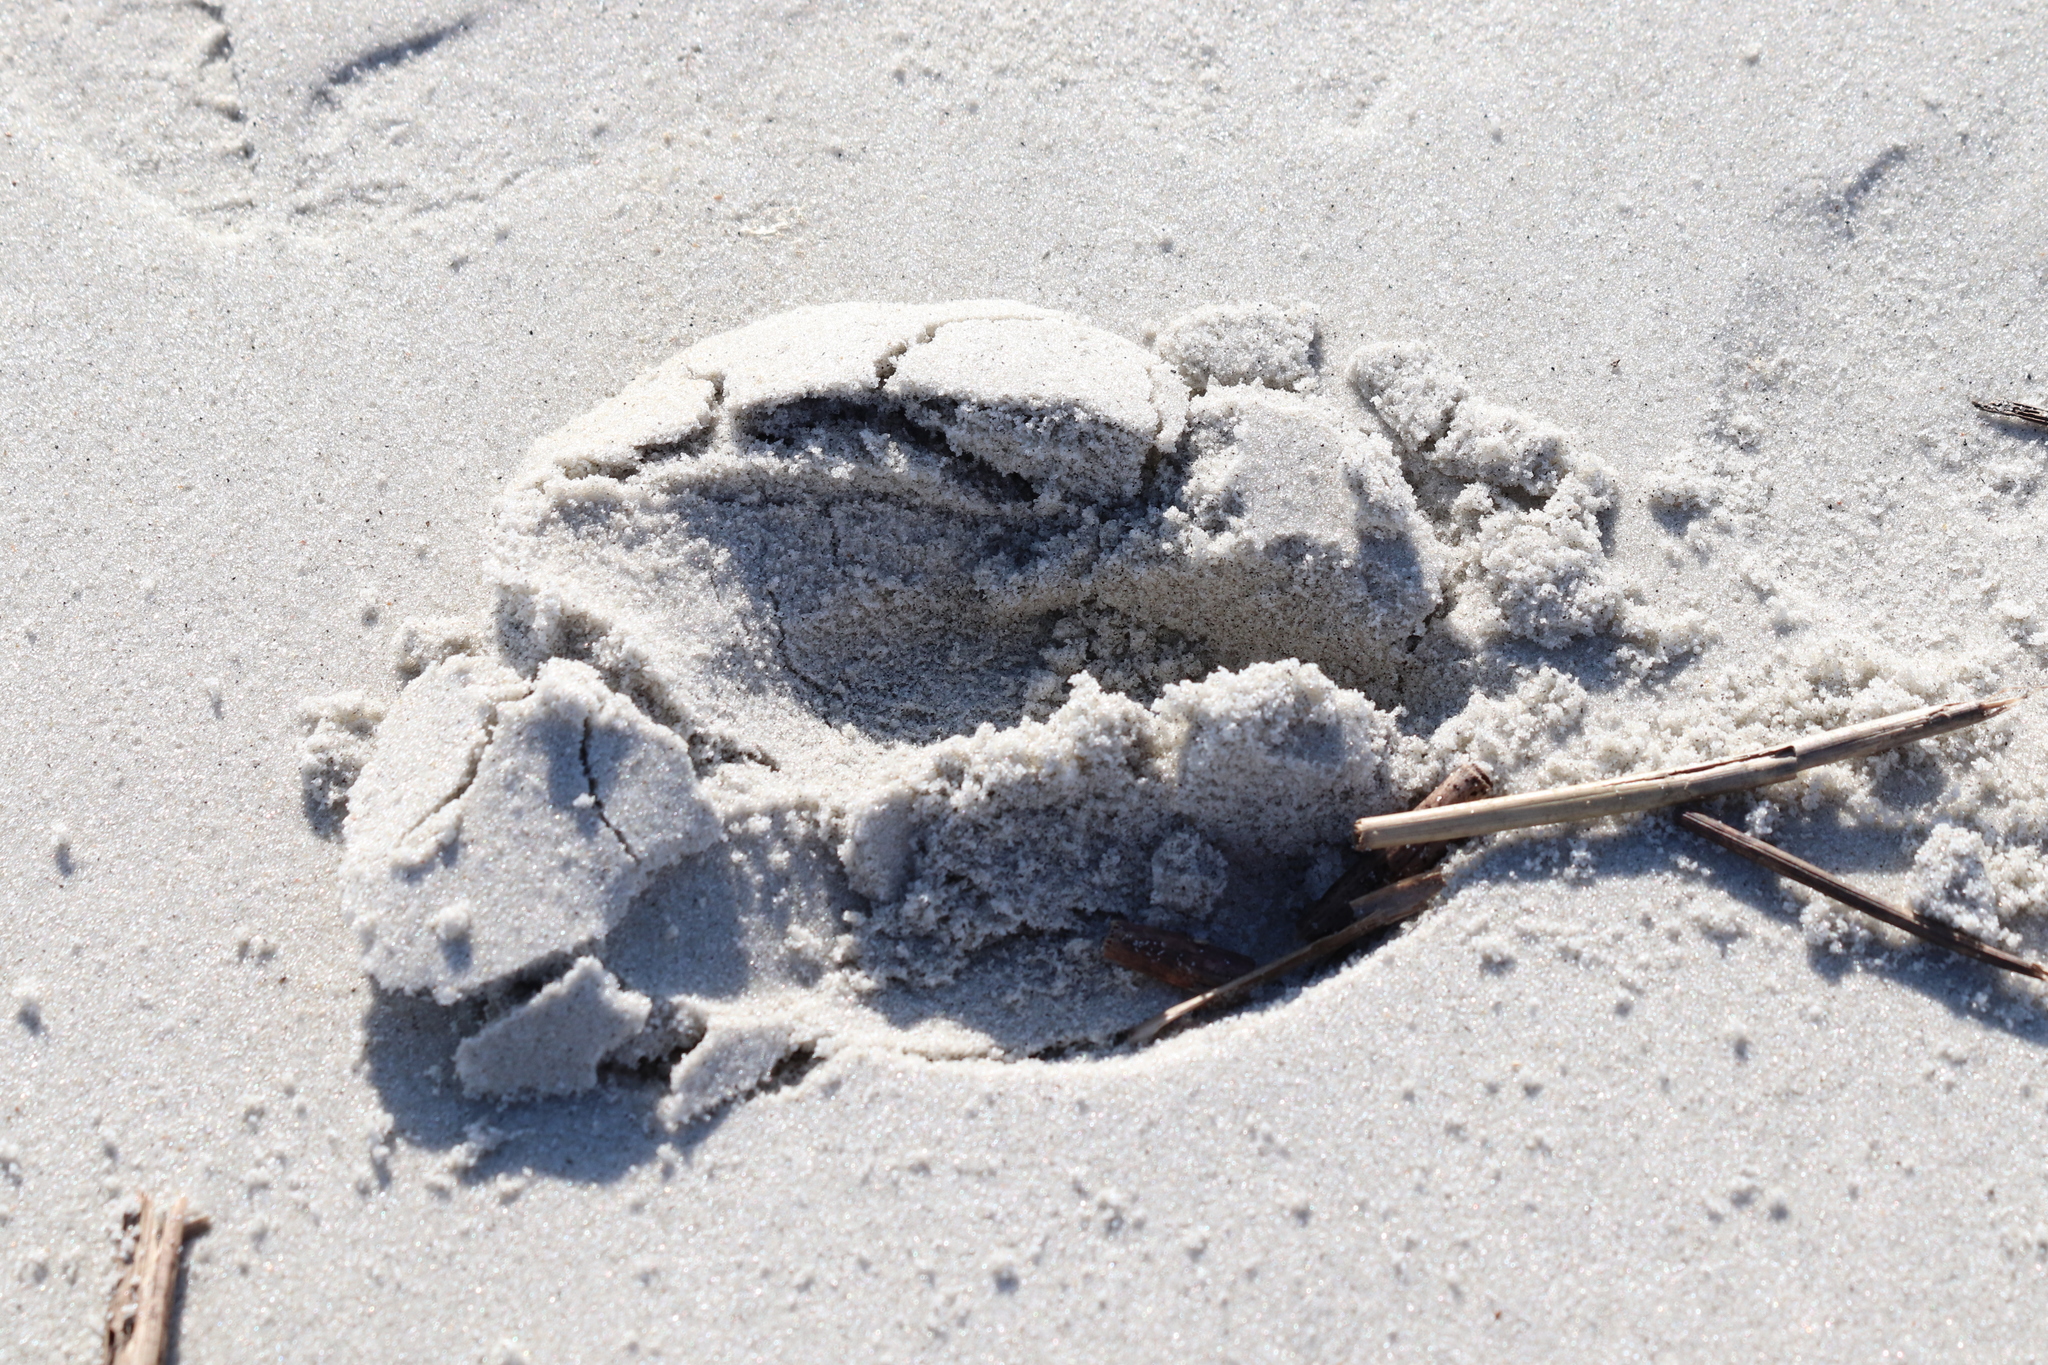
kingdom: Animalia
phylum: Chordata
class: Mammalia
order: Artiodactyla
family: Cervidae
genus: Odocoileus
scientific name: Odocoileus virginianus
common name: White-tailed deer
